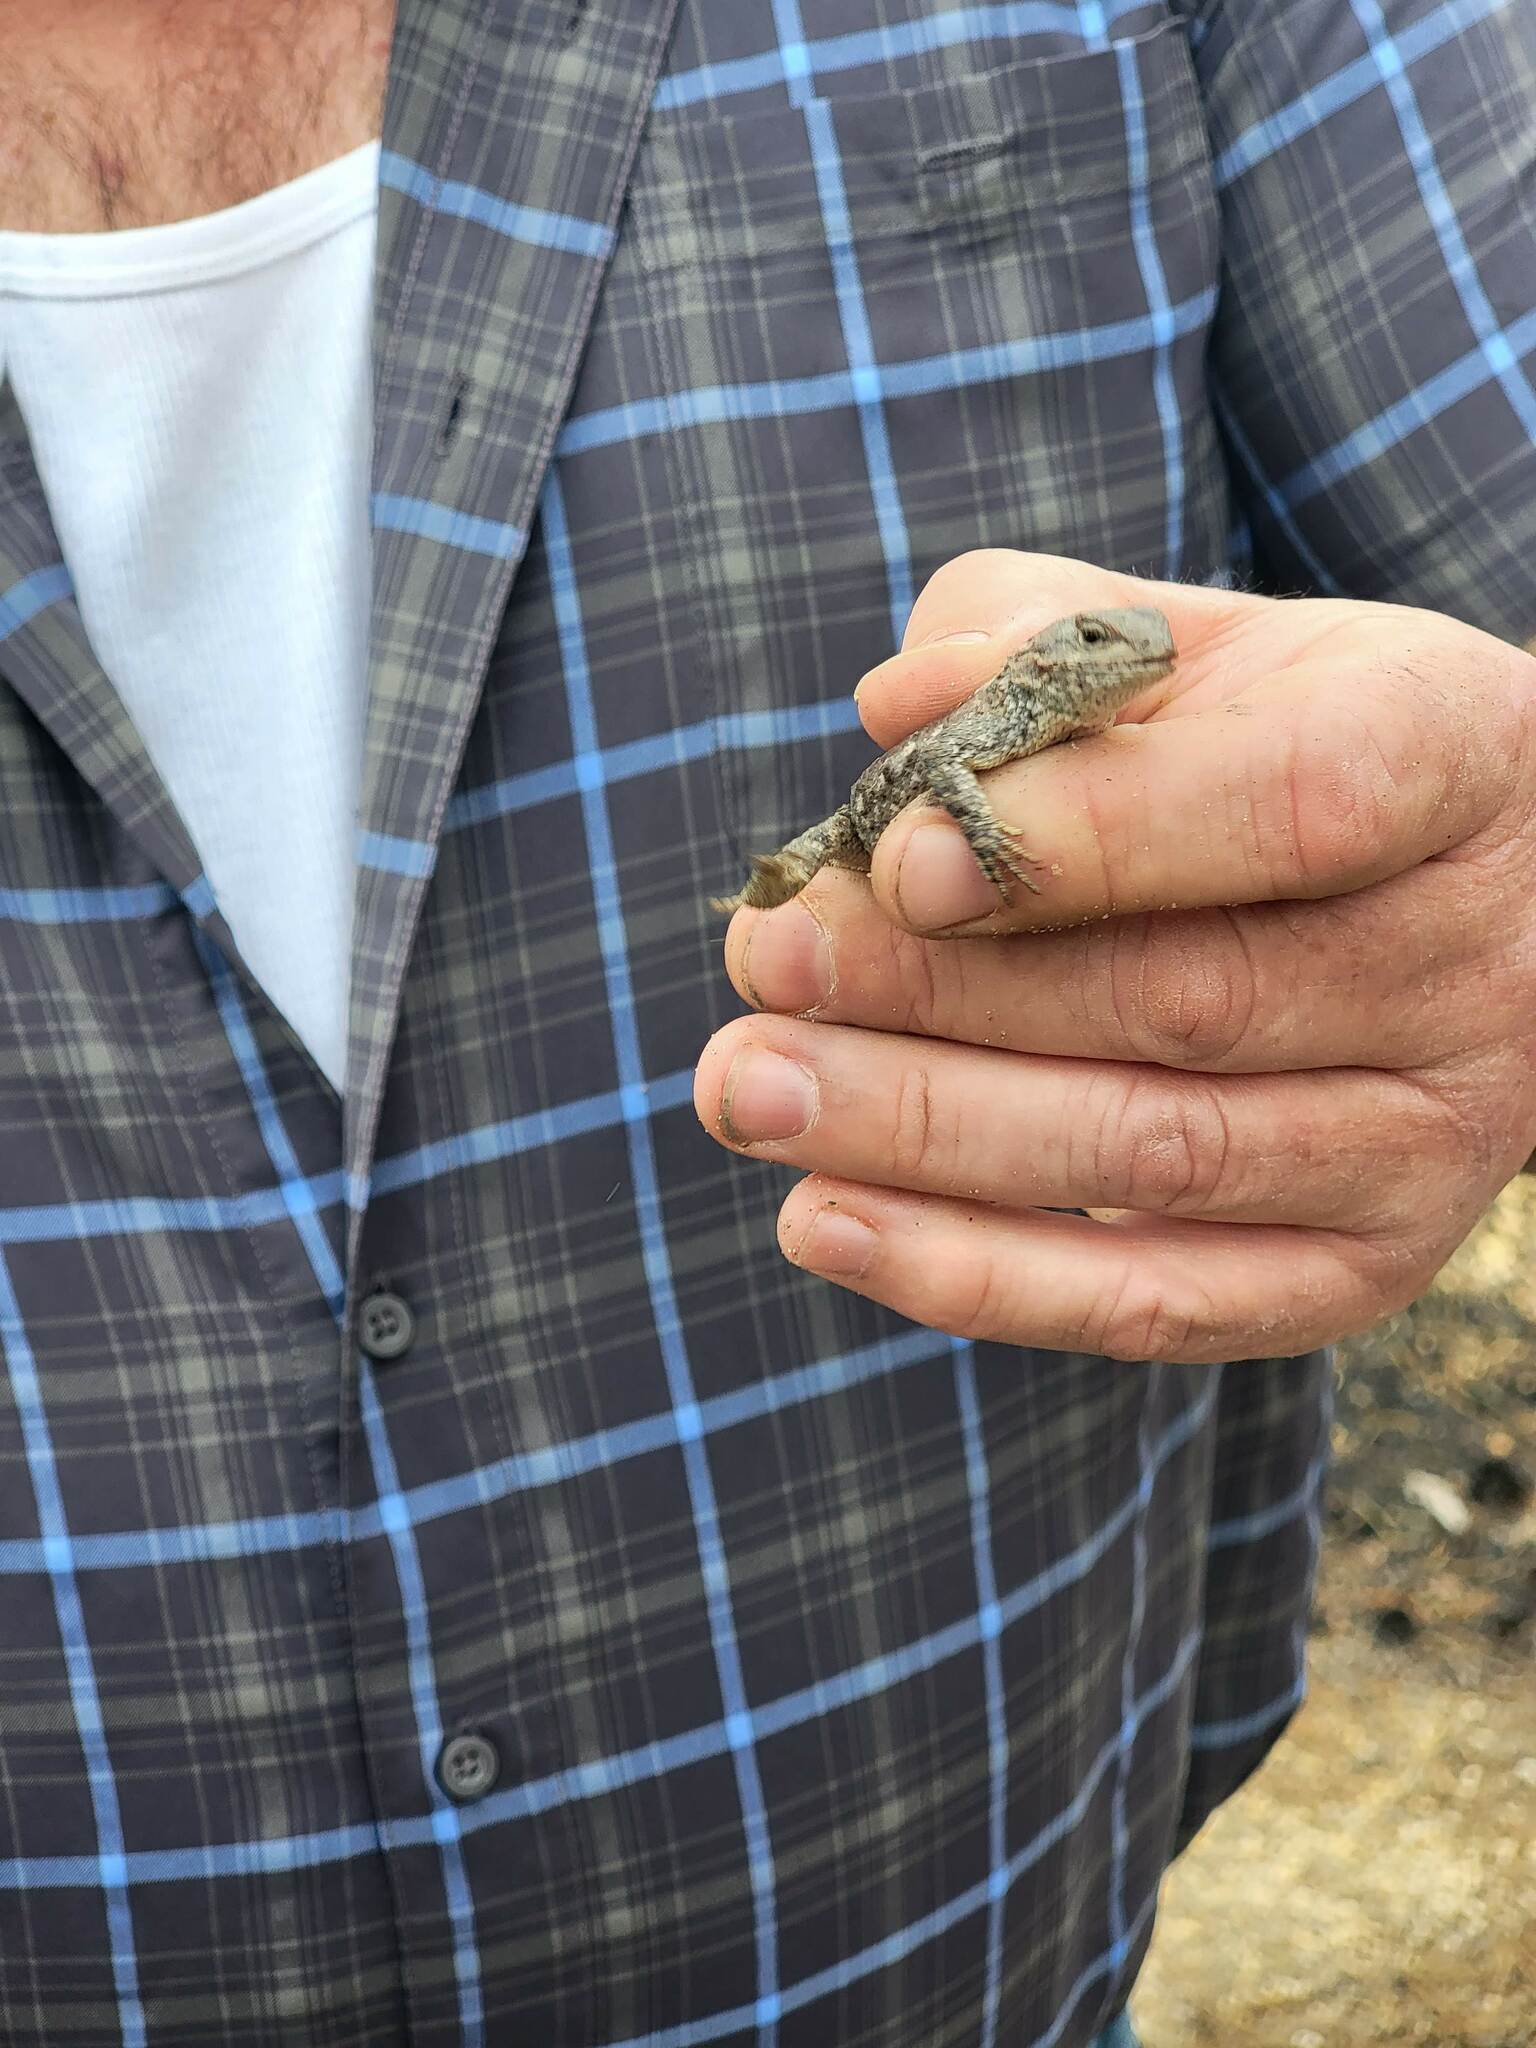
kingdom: Animalia
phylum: Chordata
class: Squamata
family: Phrynosomatidae
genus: Sceloporus
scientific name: Sceloporus undulatus
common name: Eastern fence lizard
